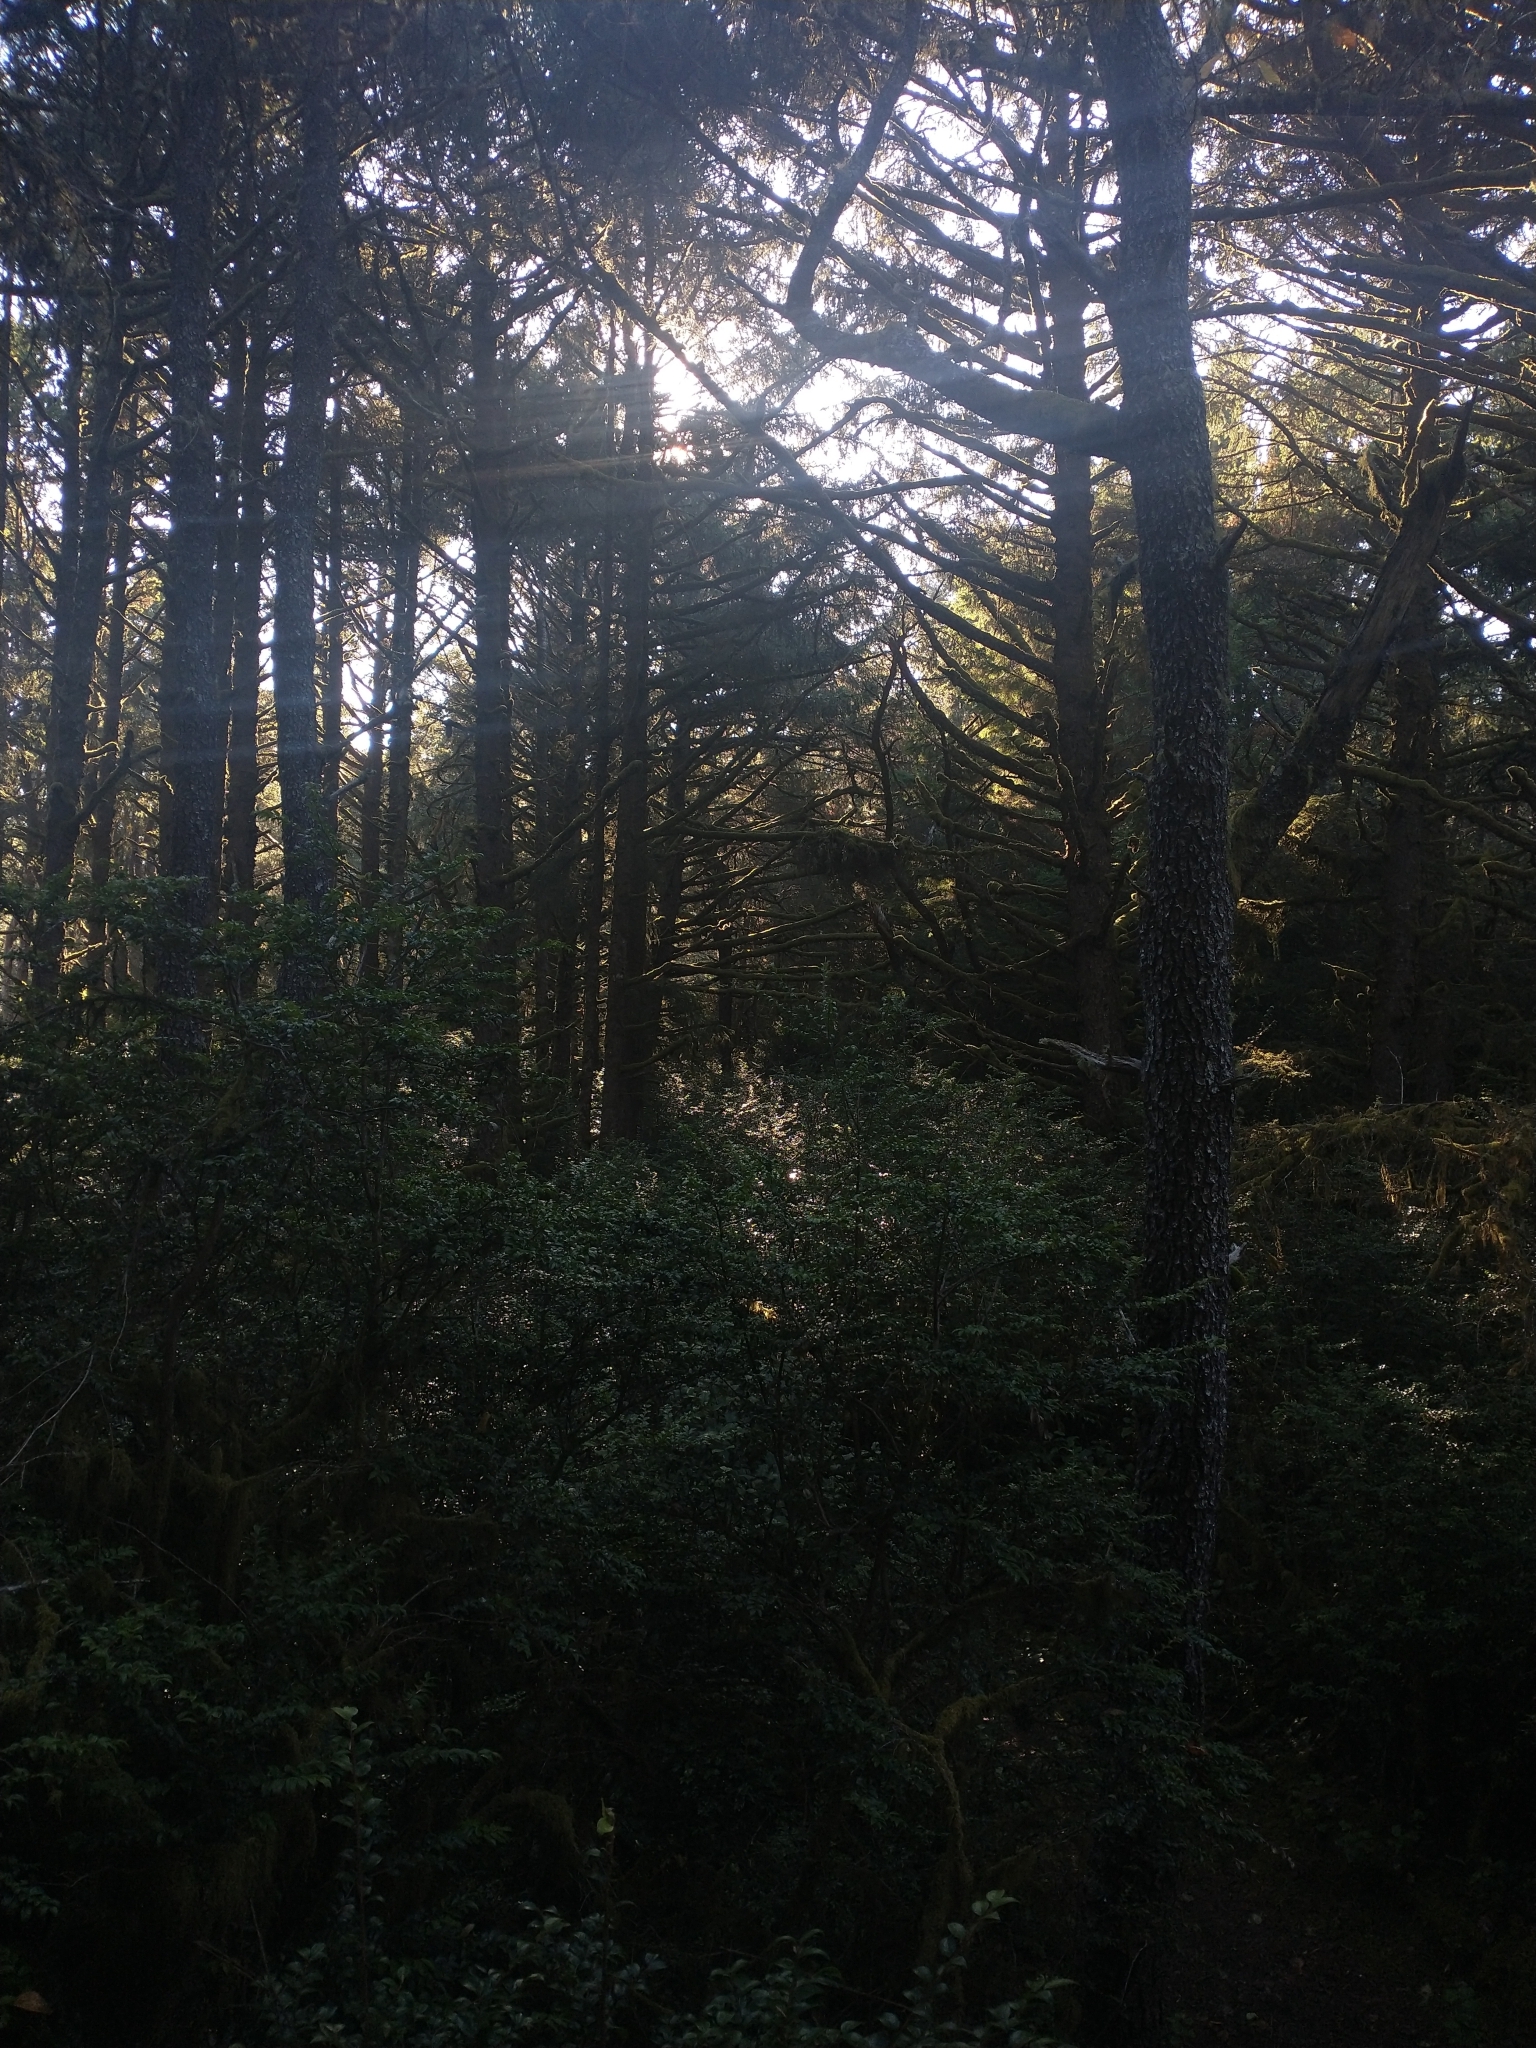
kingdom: Plantae
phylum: Tracheophyta
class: Magnoliopsida
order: Ericales
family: Ericaceae
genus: Vaccinium
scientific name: Vaccinium ovatum
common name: California-huckleberry
